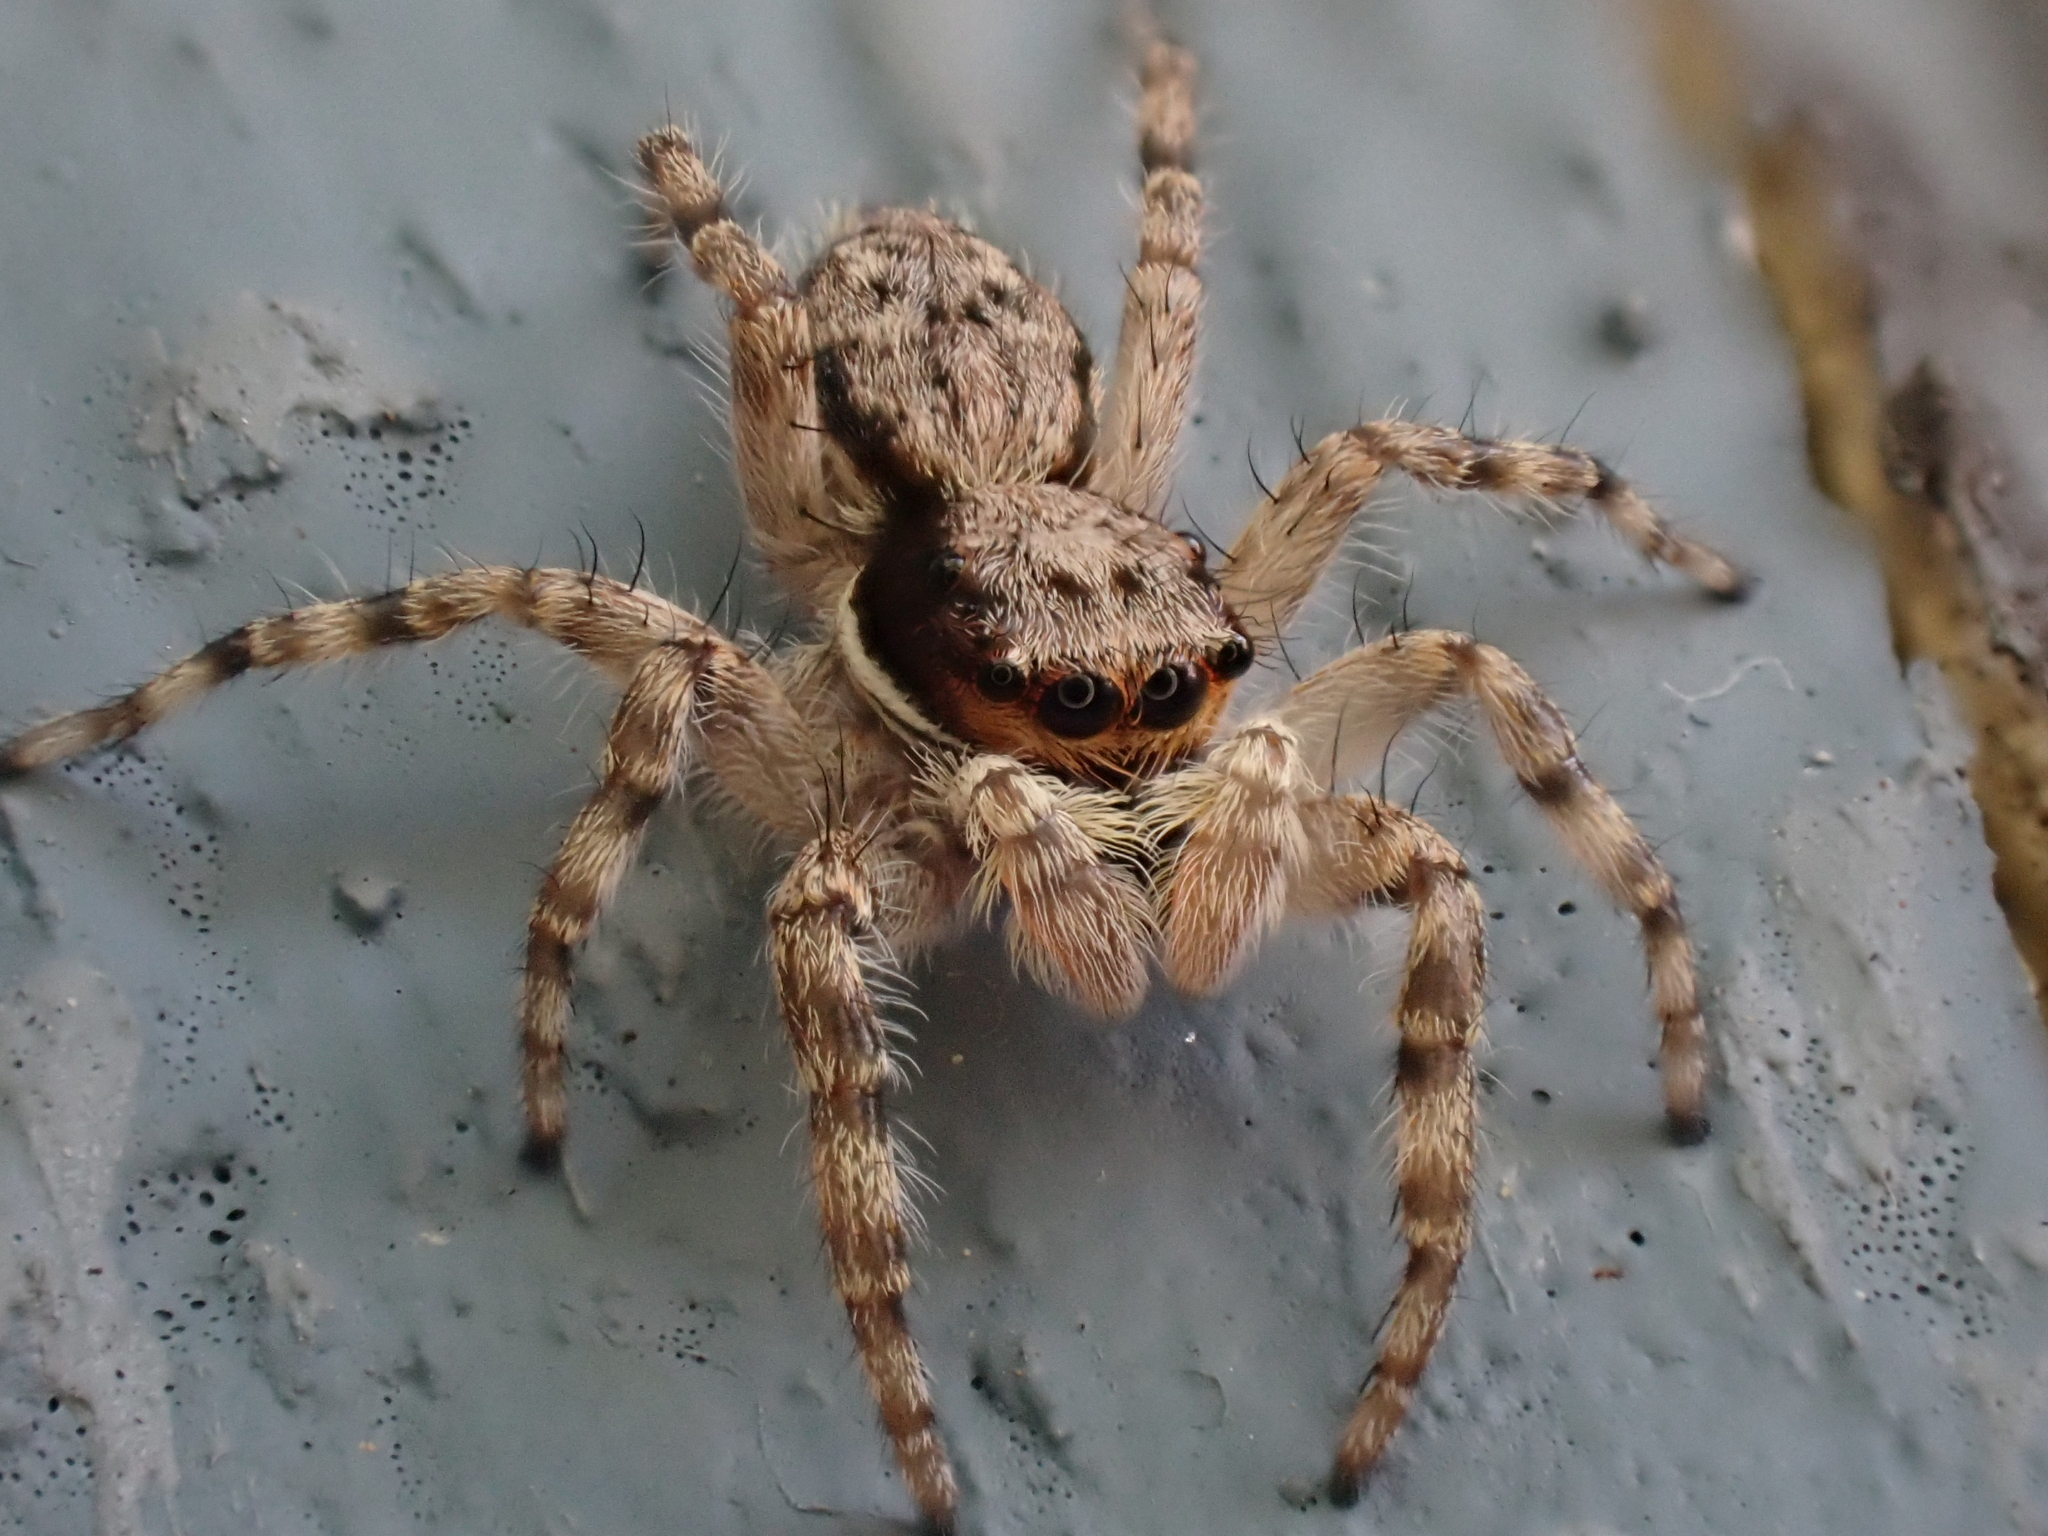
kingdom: Animalia
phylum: Arthropoda
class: Arachnida
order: Araneae
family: Salticidae
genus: Menemerus
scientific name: Menemerus bivittatus
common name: Gray wall jumper
